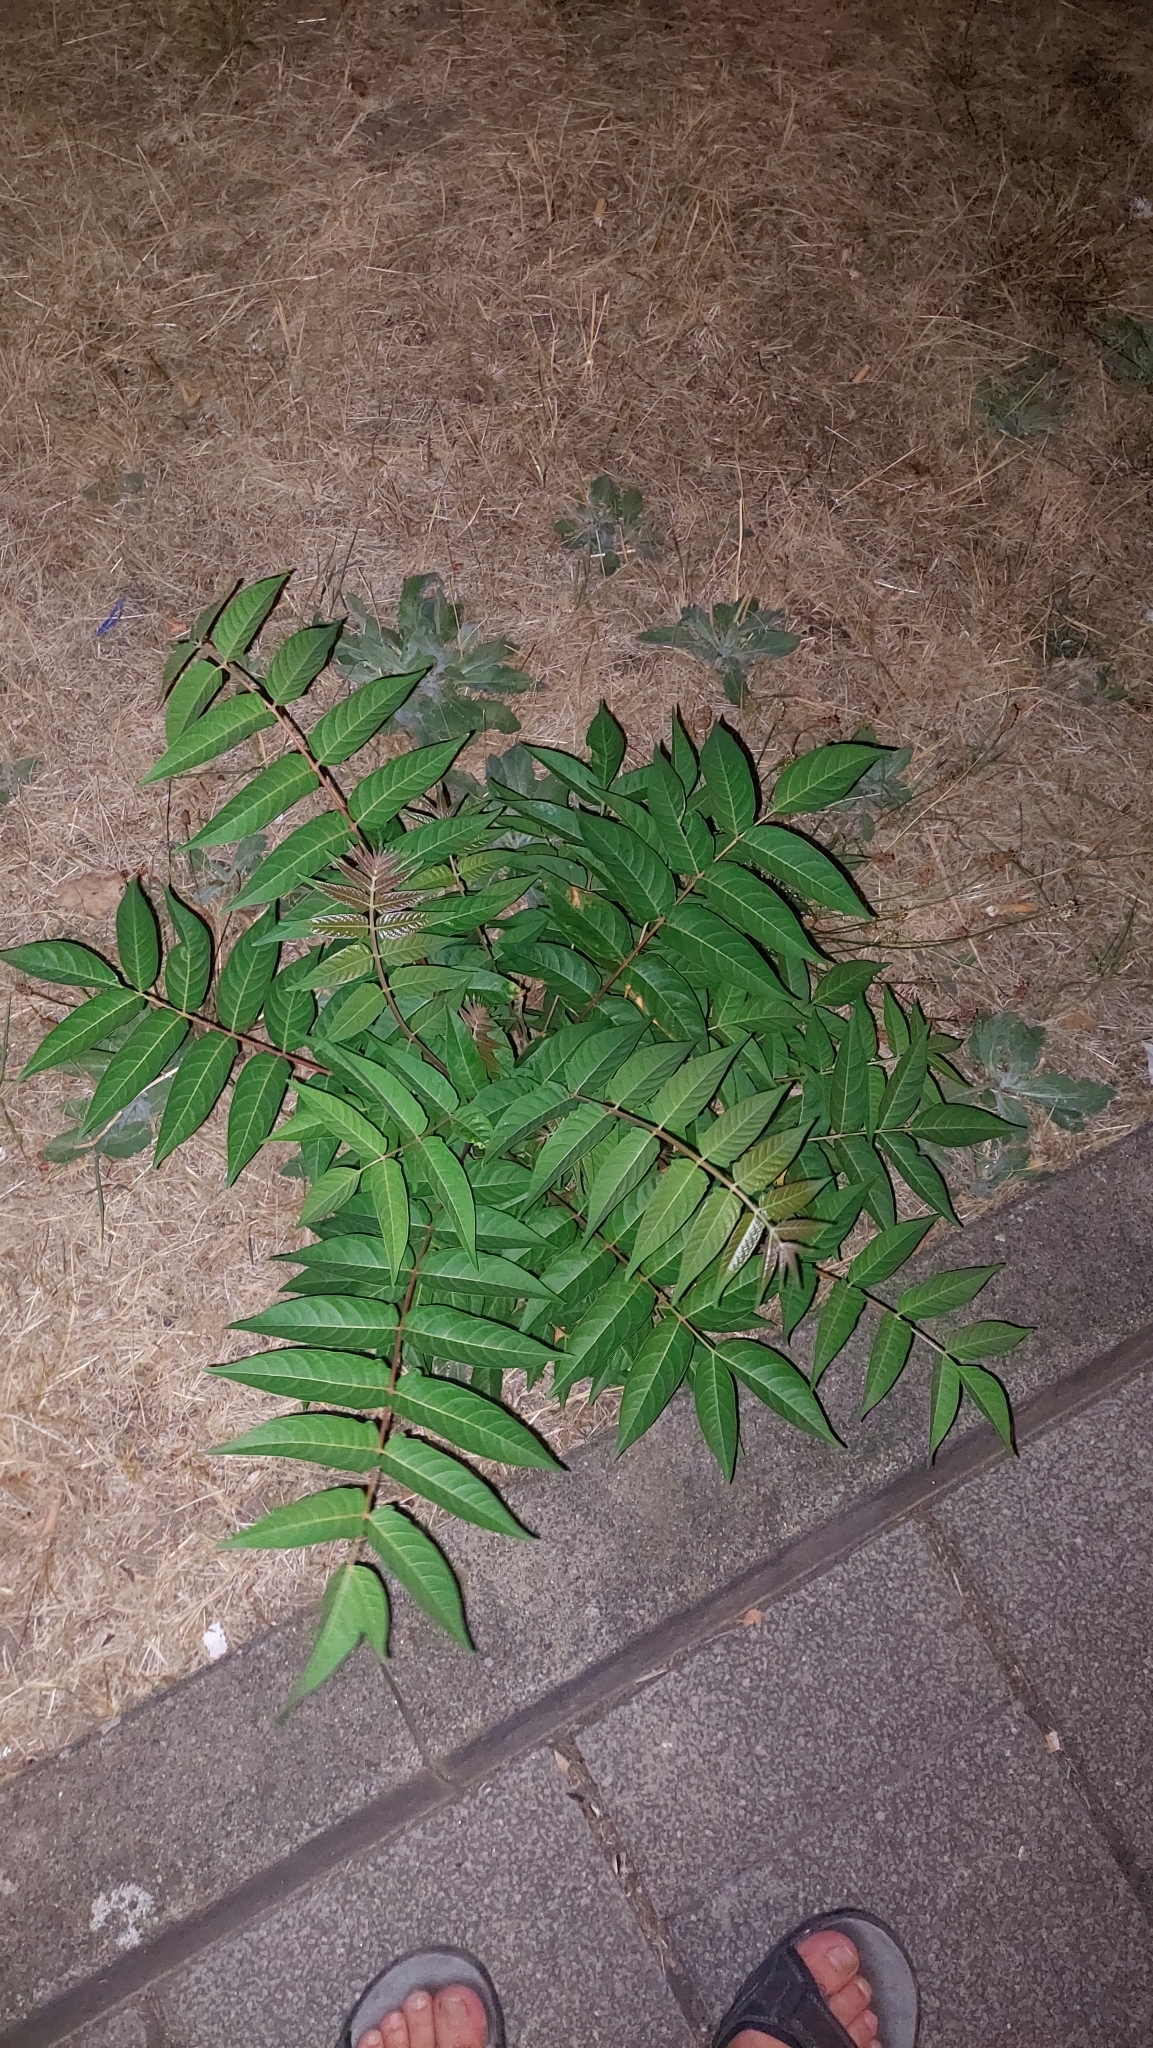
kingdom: Plantae
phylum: Tracheophyta
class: Magnoliopsida
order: Sapindales
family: Simaroubaceae
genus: Ailanthus
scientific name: Ailanthus altissima
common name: Tree-of-heaven
